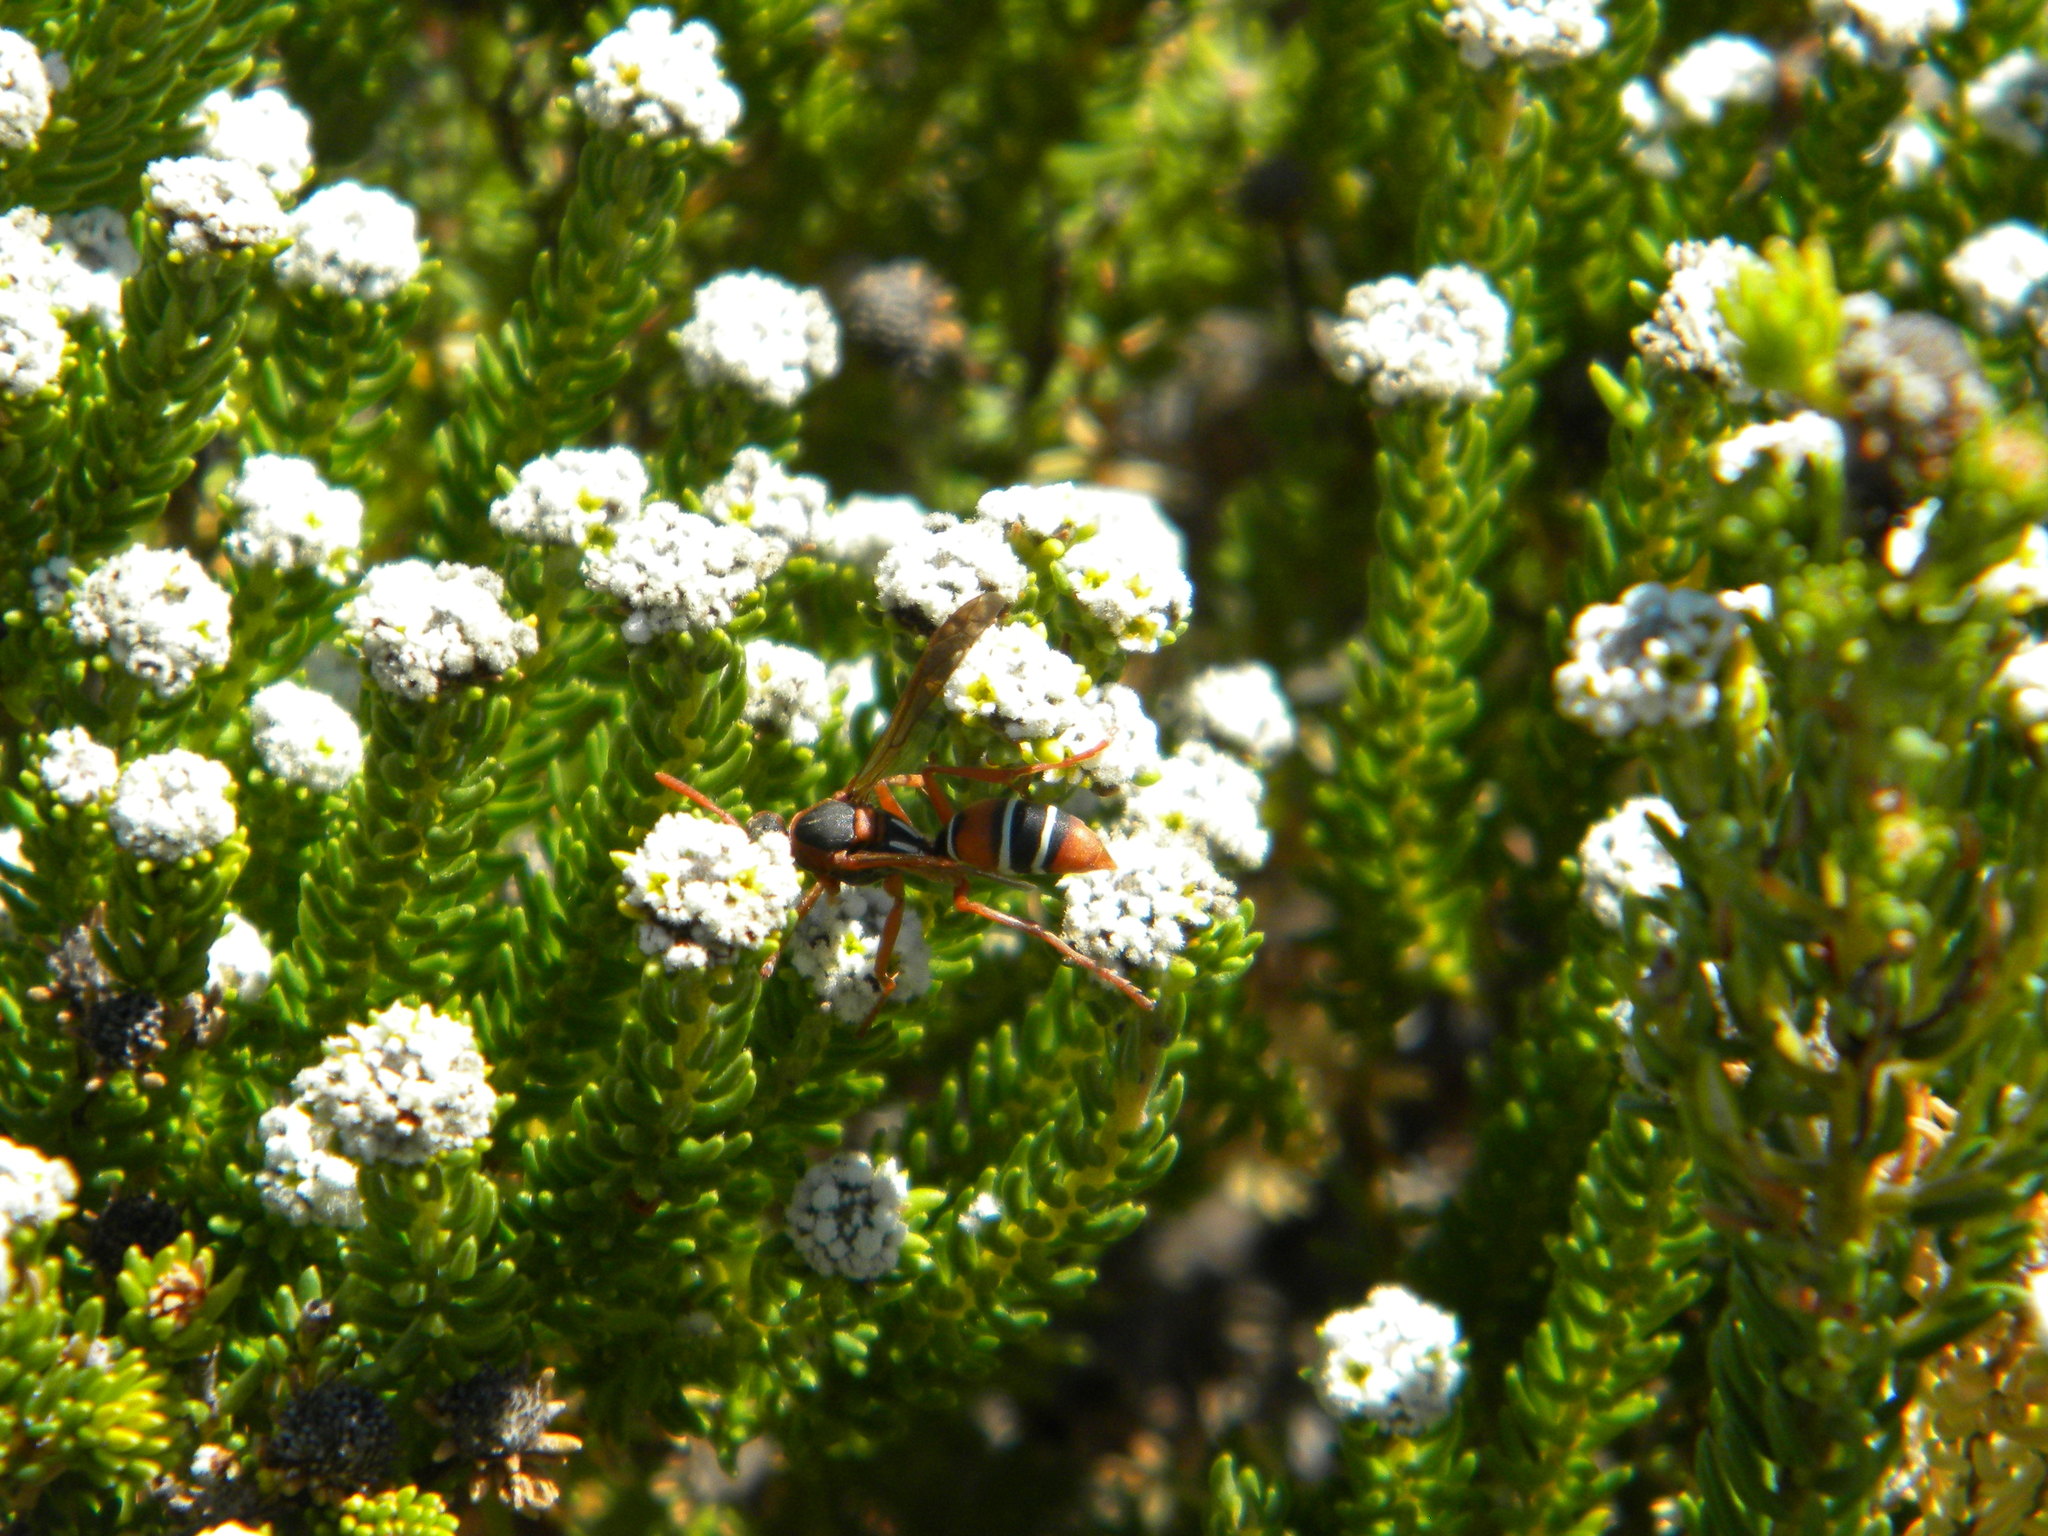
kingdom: Animalia
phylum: Arthropoda
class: Insecta
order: Hymenoptera
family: Eumenidae
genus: Polistes
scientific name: Polistes marginalis
